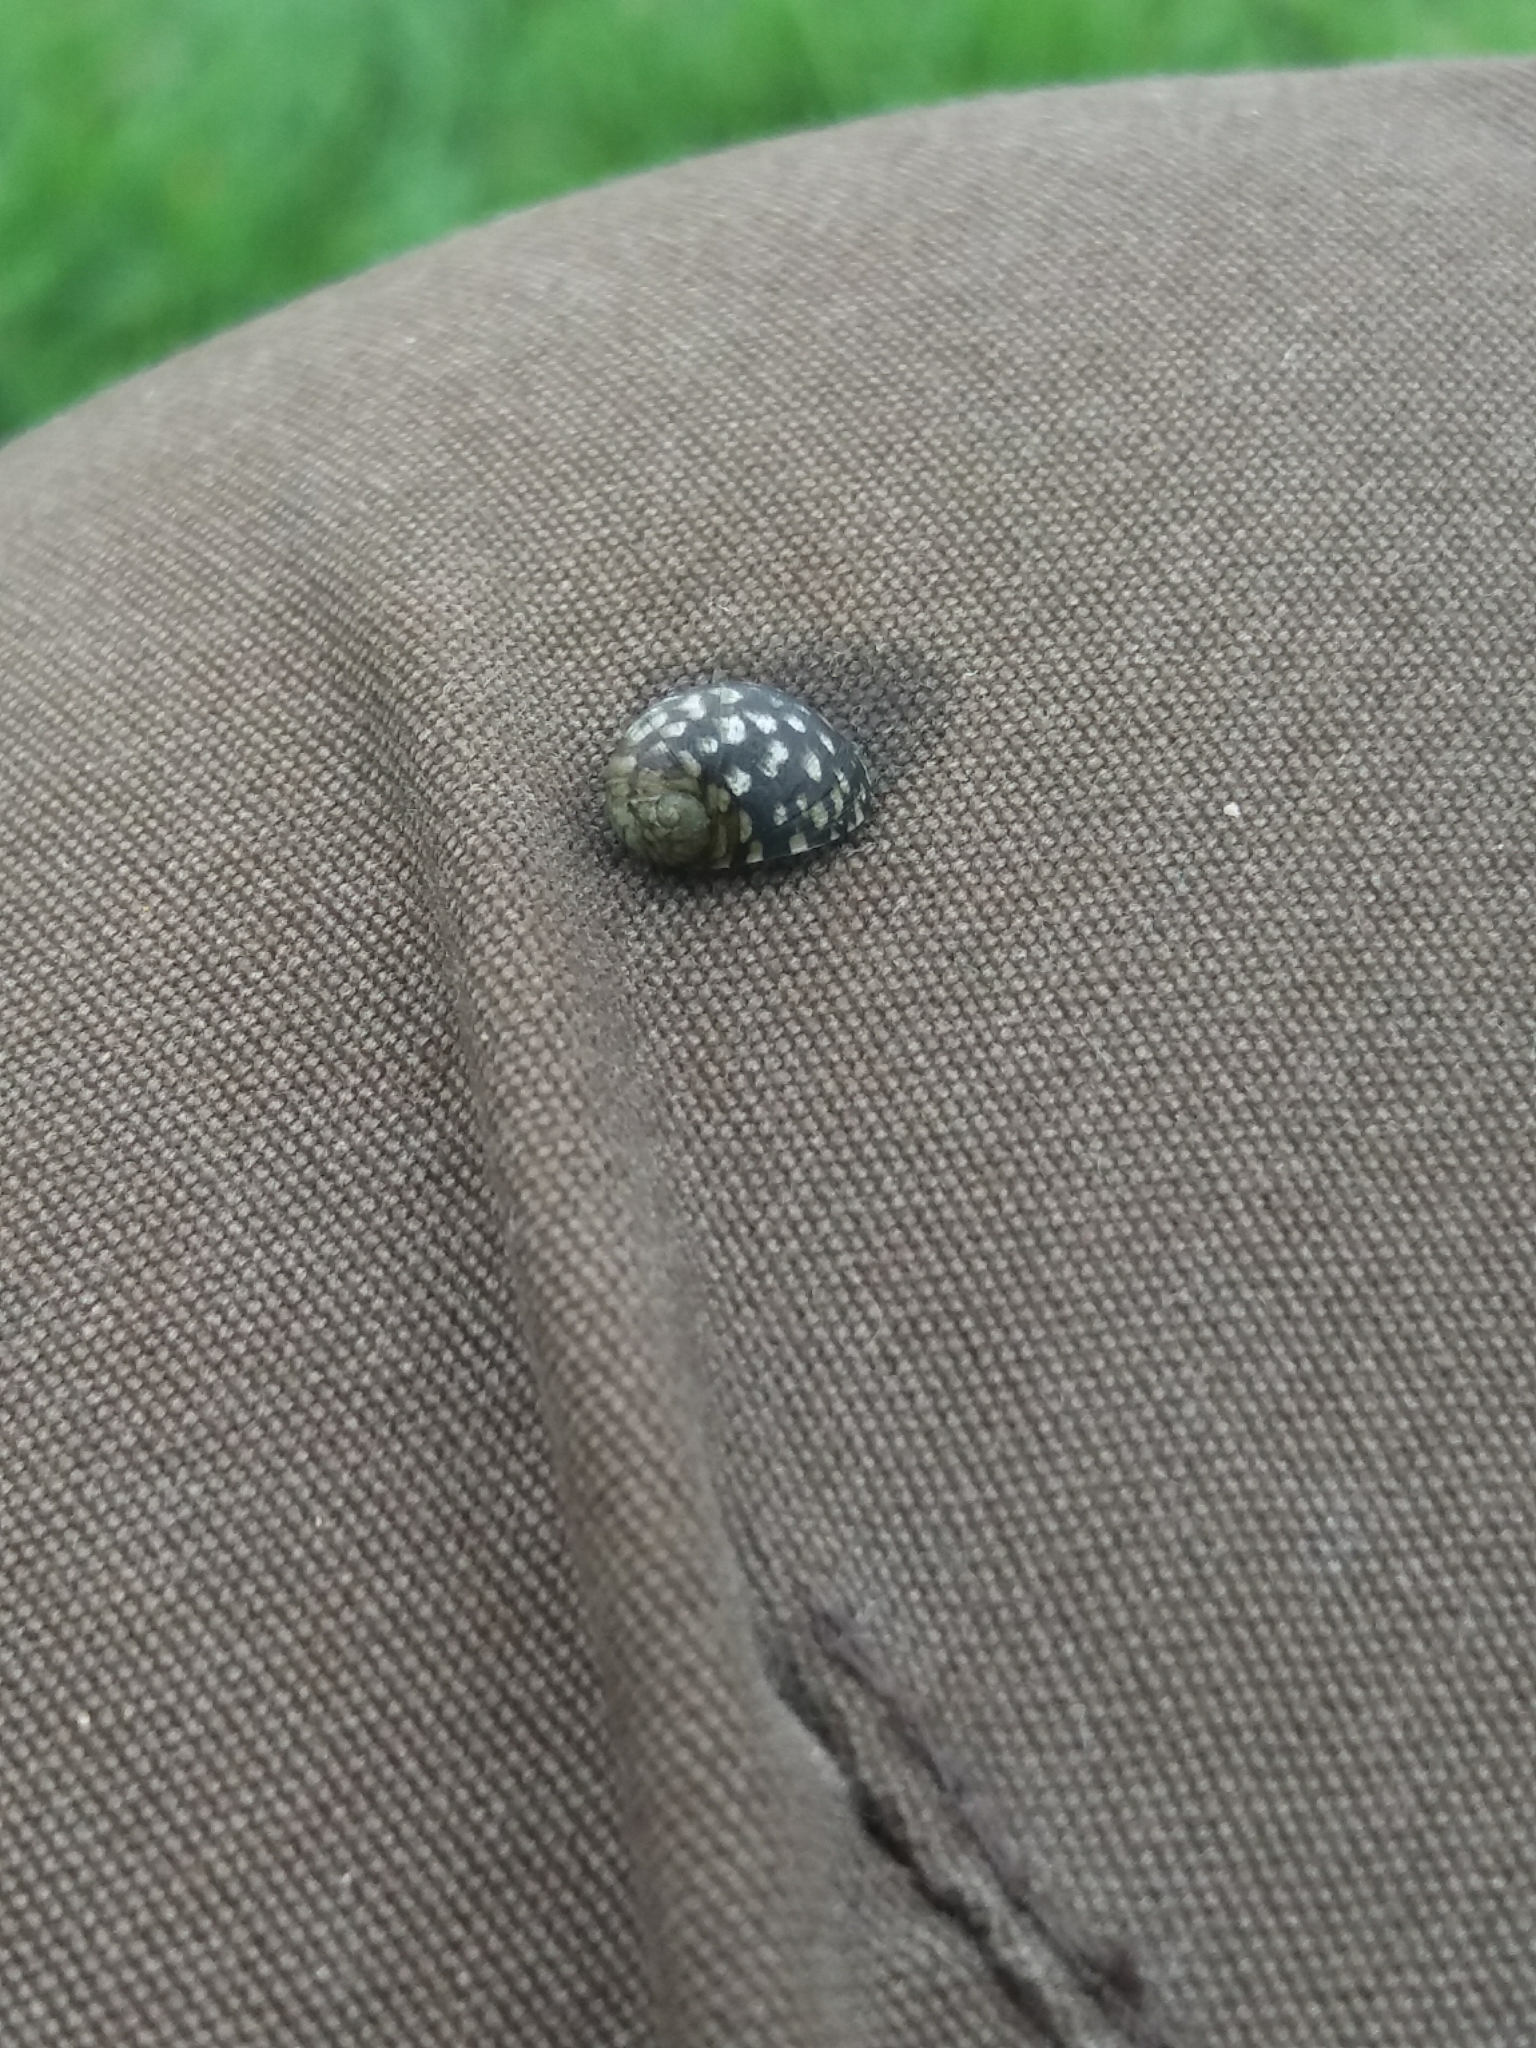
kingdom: Animalia
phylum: Mollusca
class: Gastropoda
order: Cycloneritida
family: Neritidae
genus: Theodoxus
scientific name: Theodoxus fluviatilis
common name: River nerite
